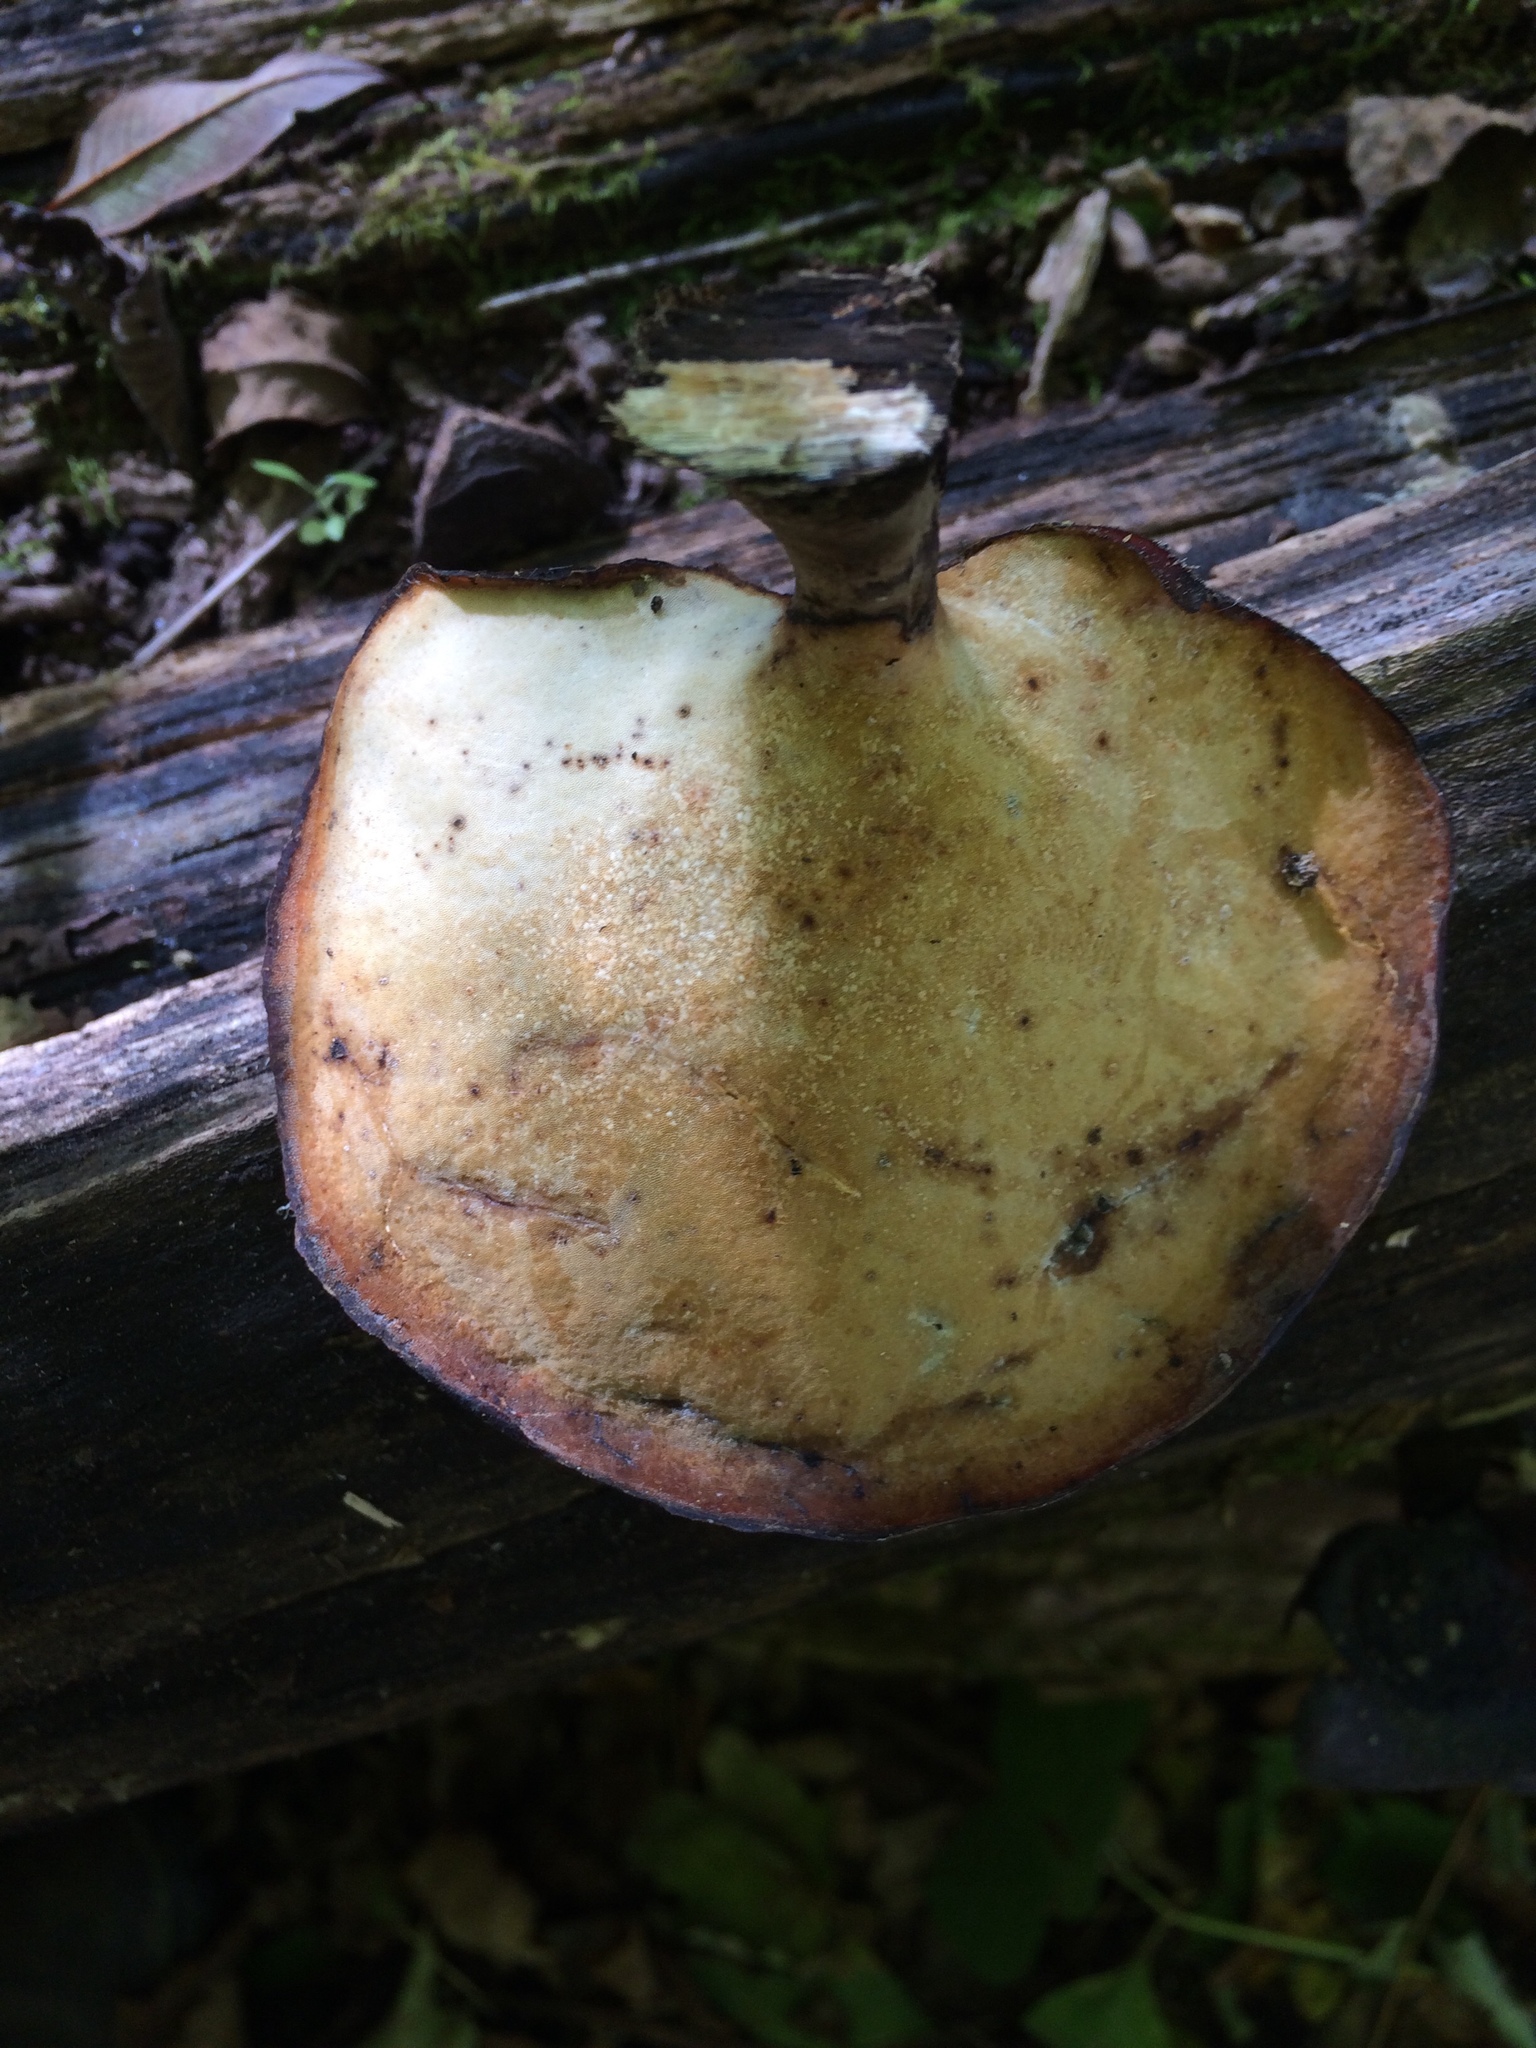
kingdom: Fungi
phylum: Basidiomycota
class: Agaricomycetes
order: Polyporales
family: Polyporaceae
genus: Picipes
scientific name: Picipes badius
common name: Bay polypore
